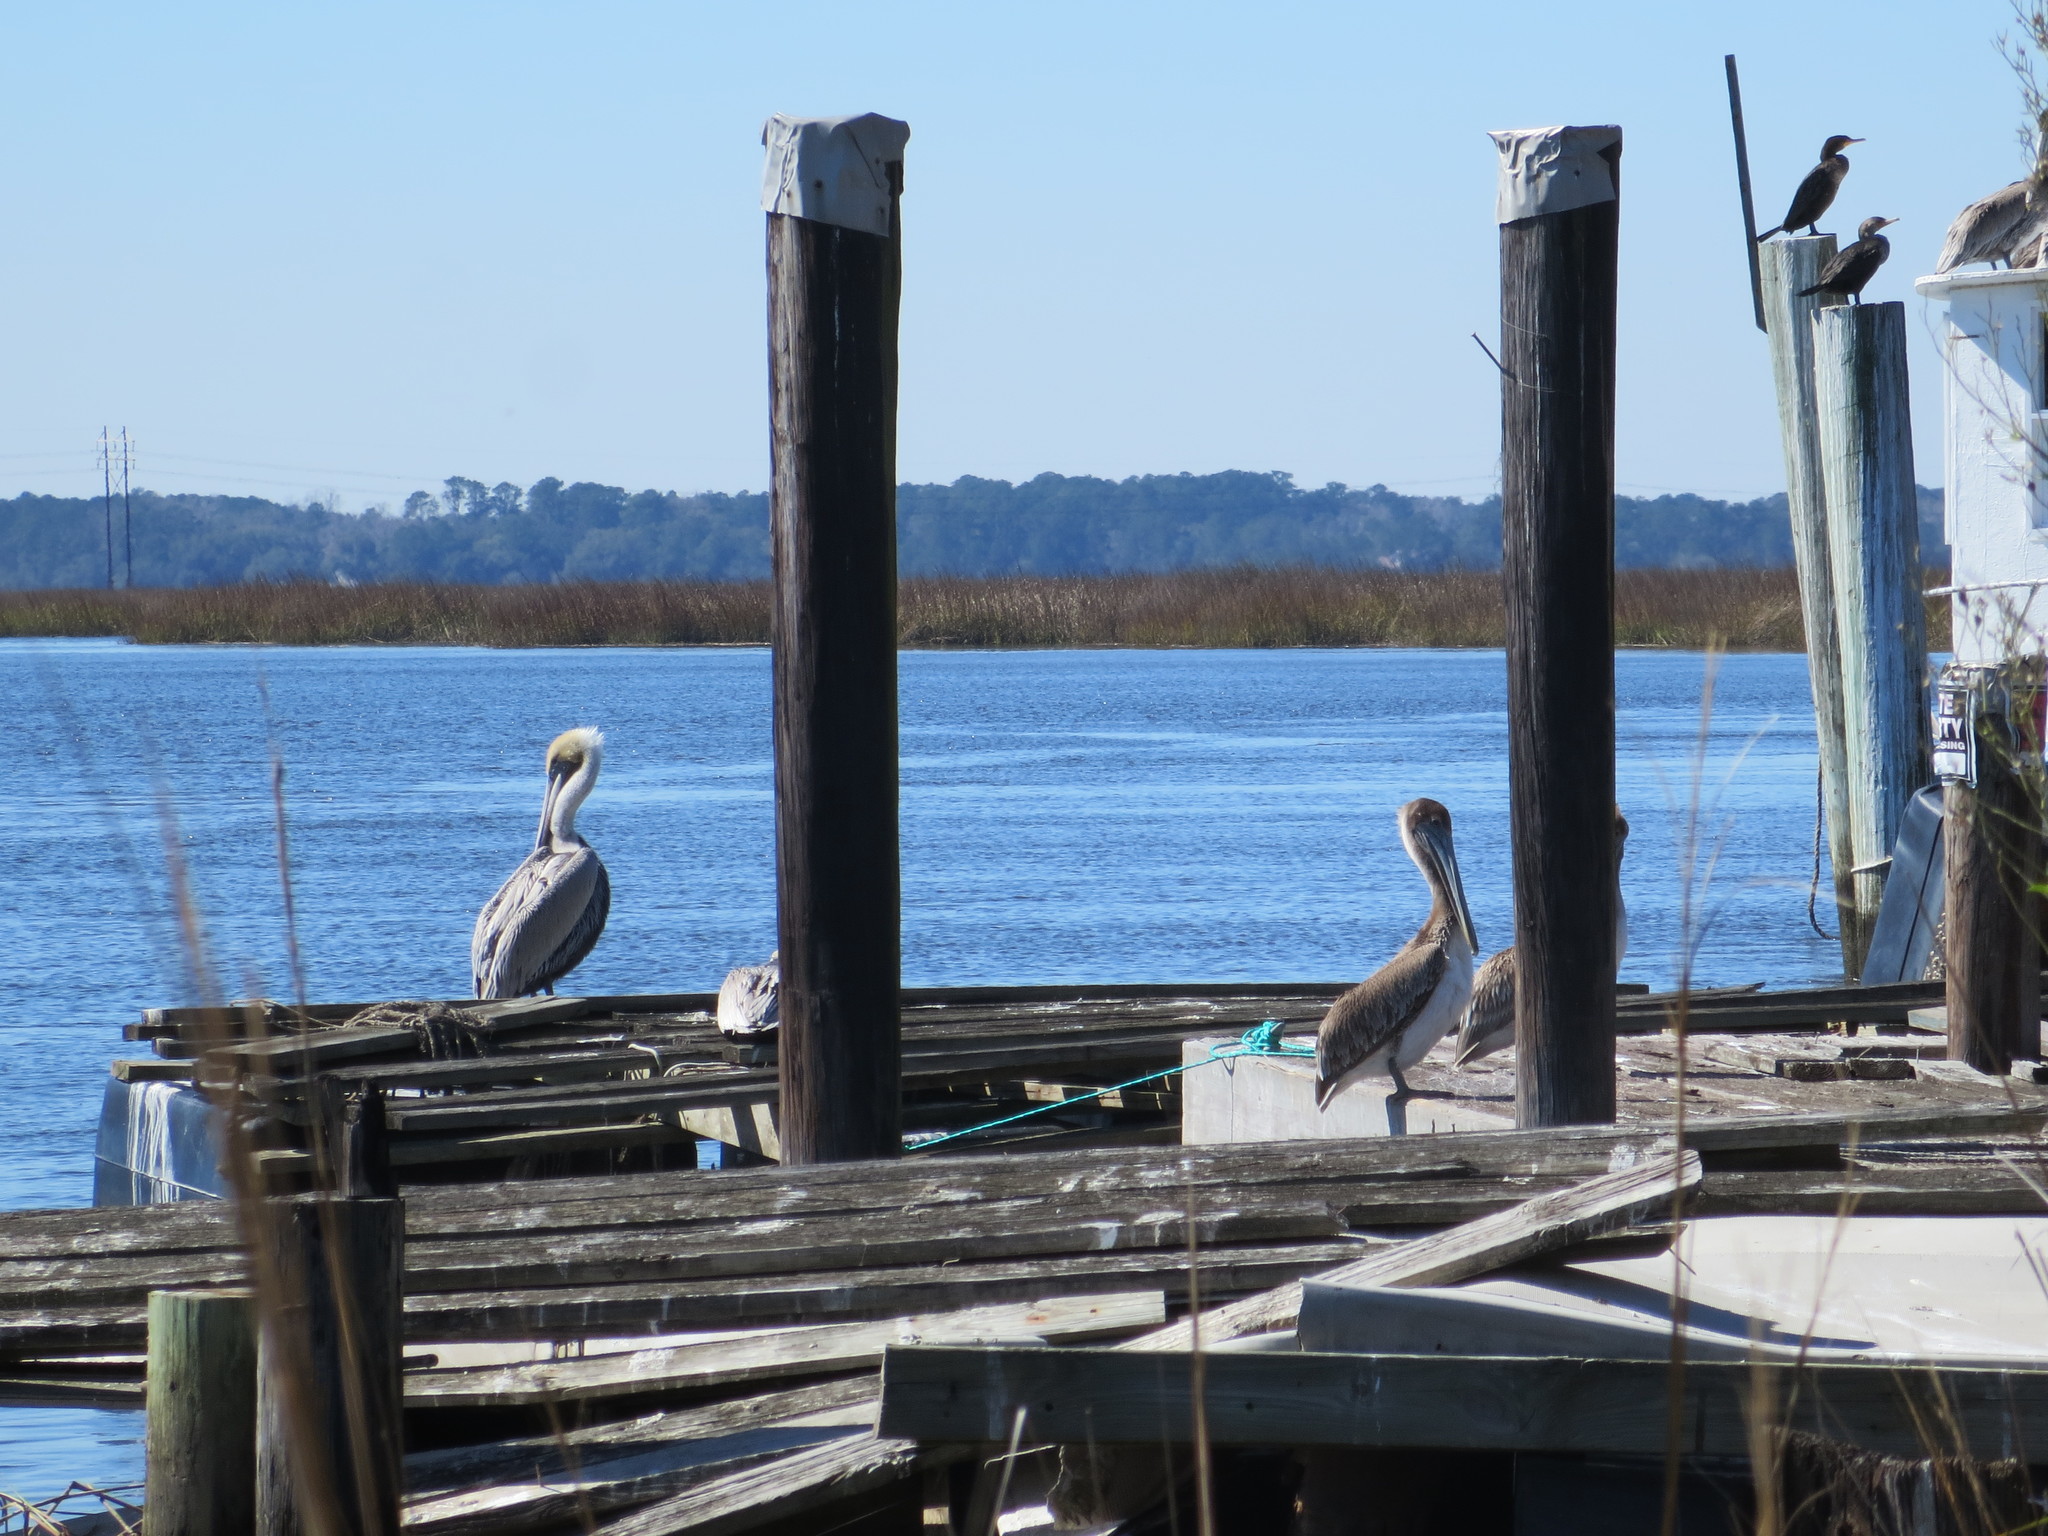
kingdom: Animalia
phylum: Chordata
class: Aves
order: Pelecaniformes
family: Pelecanidae
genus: Pelecanus
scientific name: Pelecanus occidentalis
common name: Brown pelican
